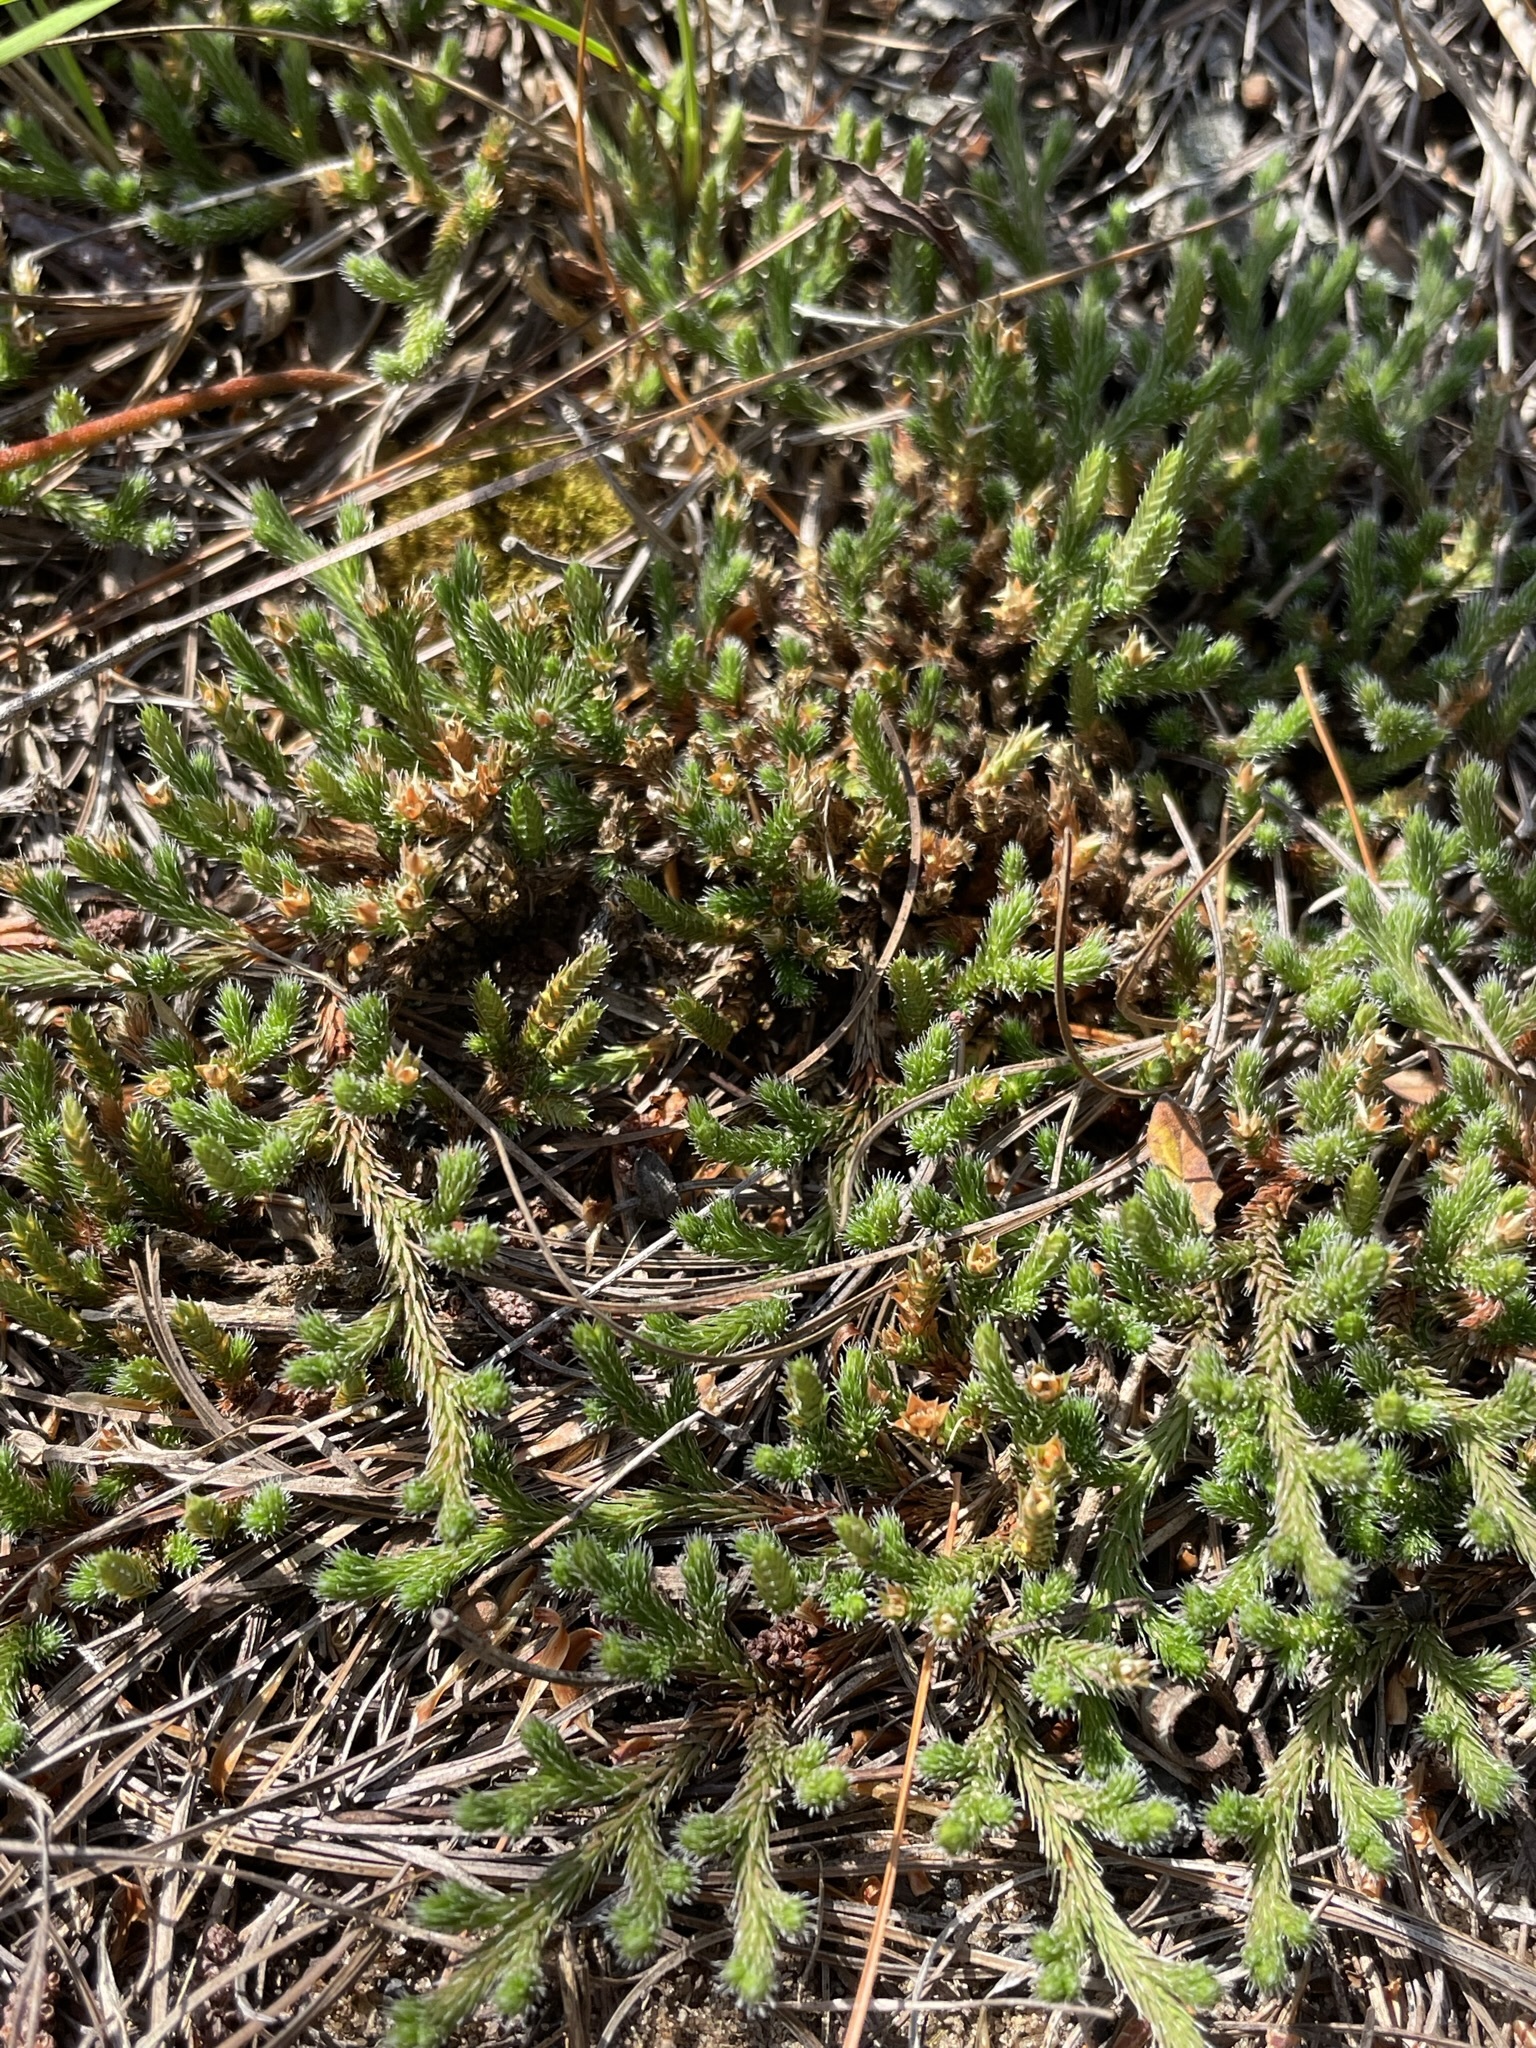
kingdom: Plantae
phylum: Tracheophyta
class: Lycopodiopsida
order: Selaginellales
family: Selaginellaceae
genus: Selaginella
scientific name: Selaginella rupestris
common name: Dwarf spikemoss
